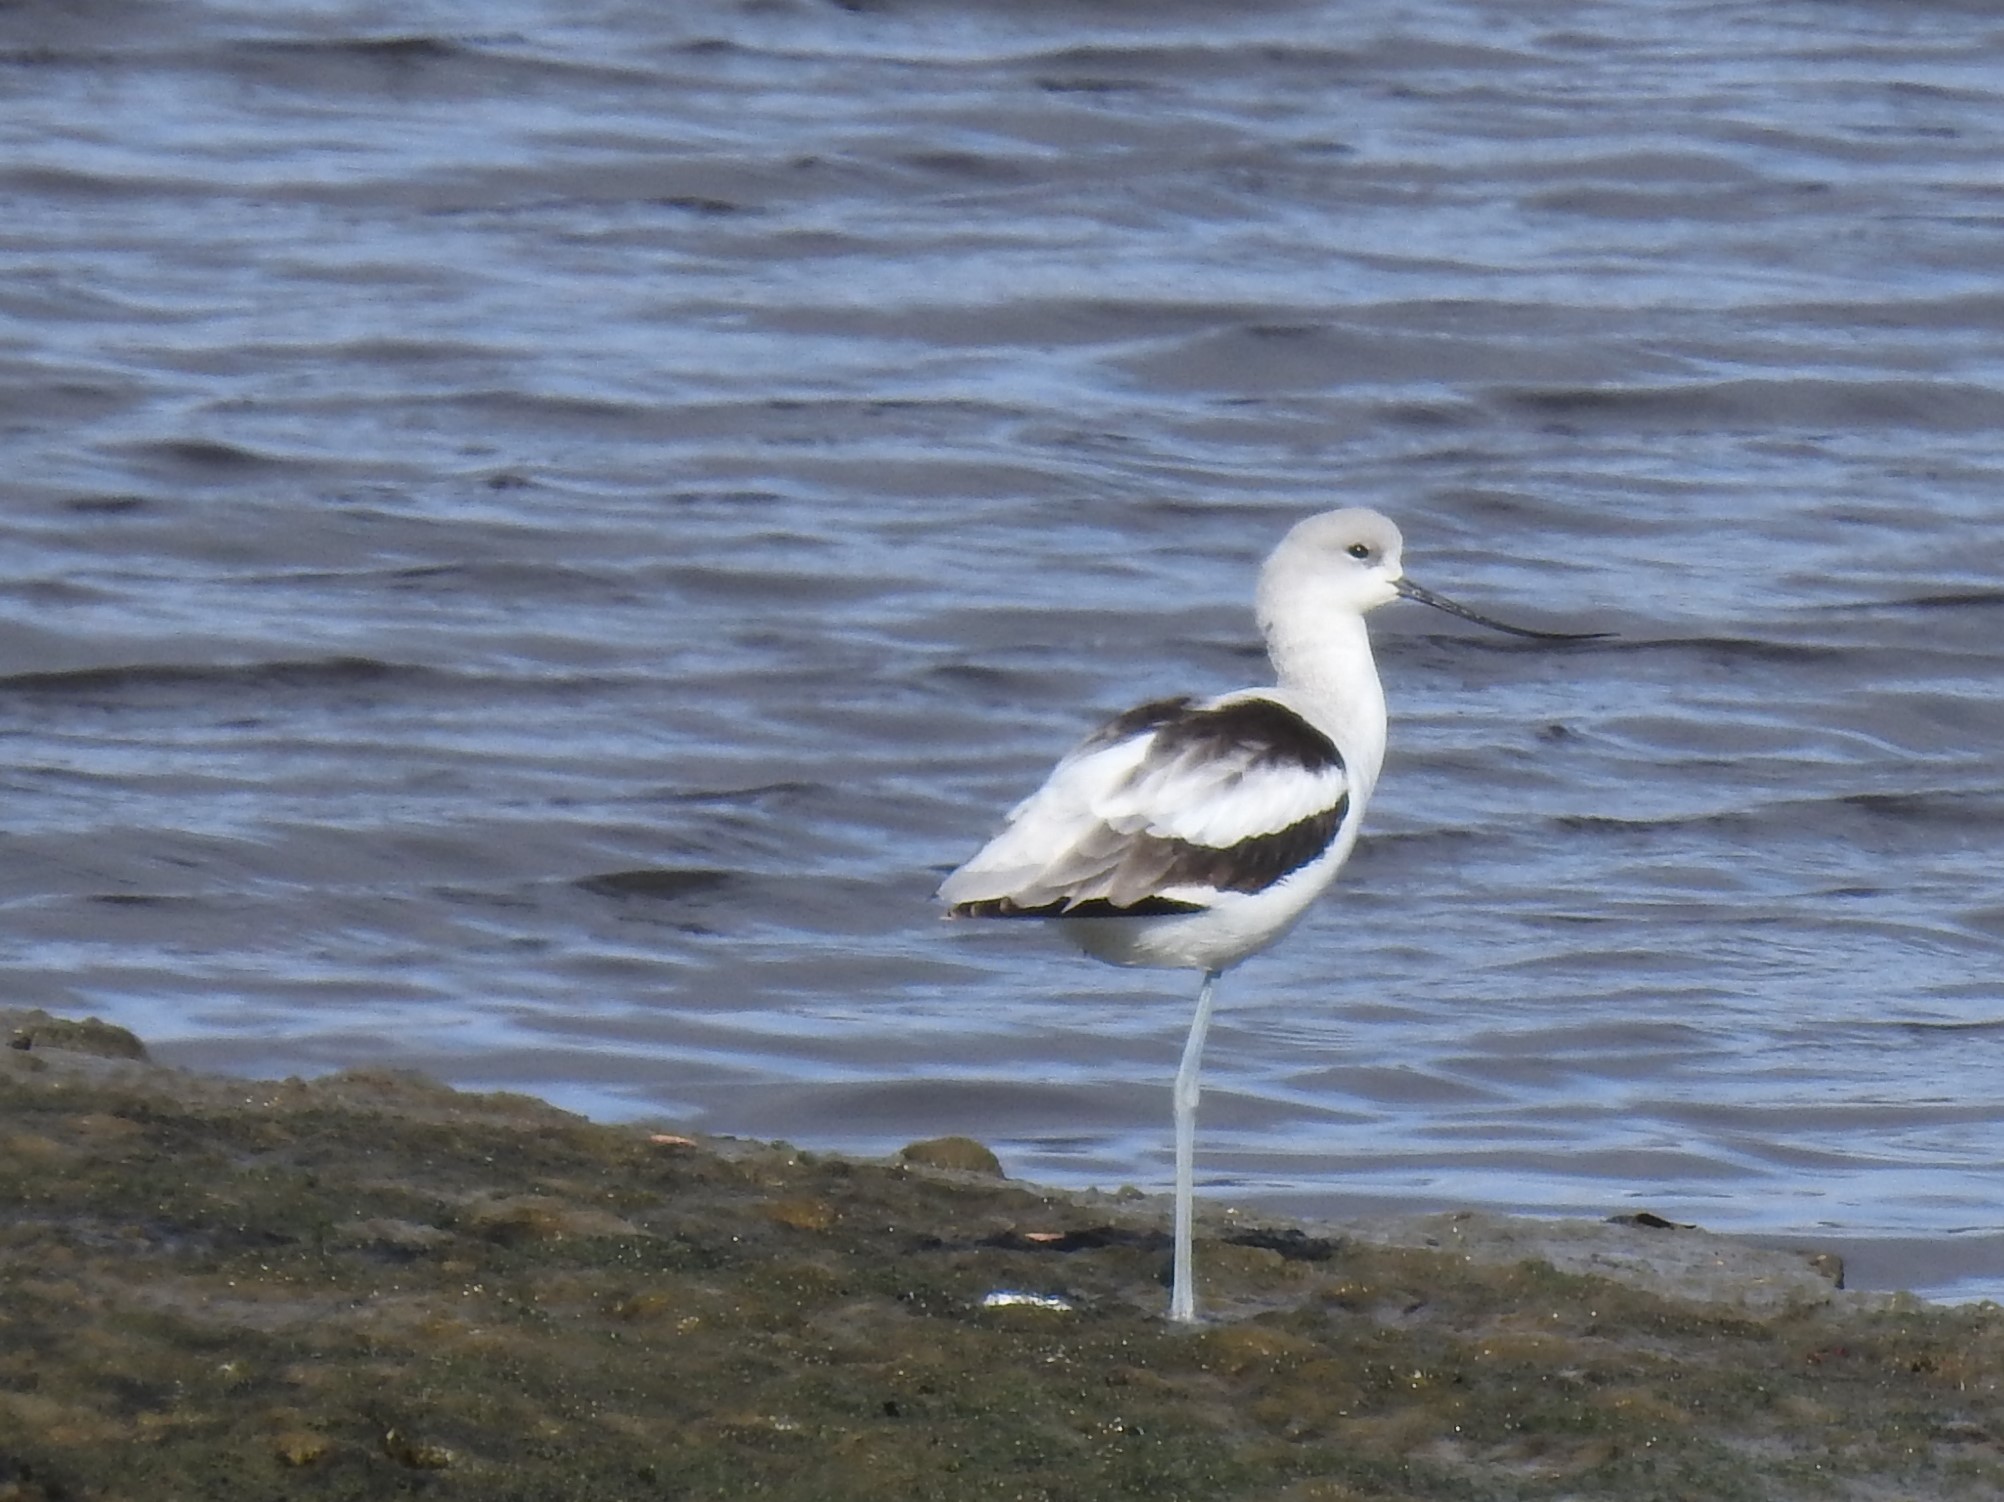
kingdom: Animalia
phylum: Chordata
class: Aves
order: Charadriiformes
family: Recurvirostridae
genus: Recurvirostra
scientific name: Recurvirostra americana
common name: American avocet
